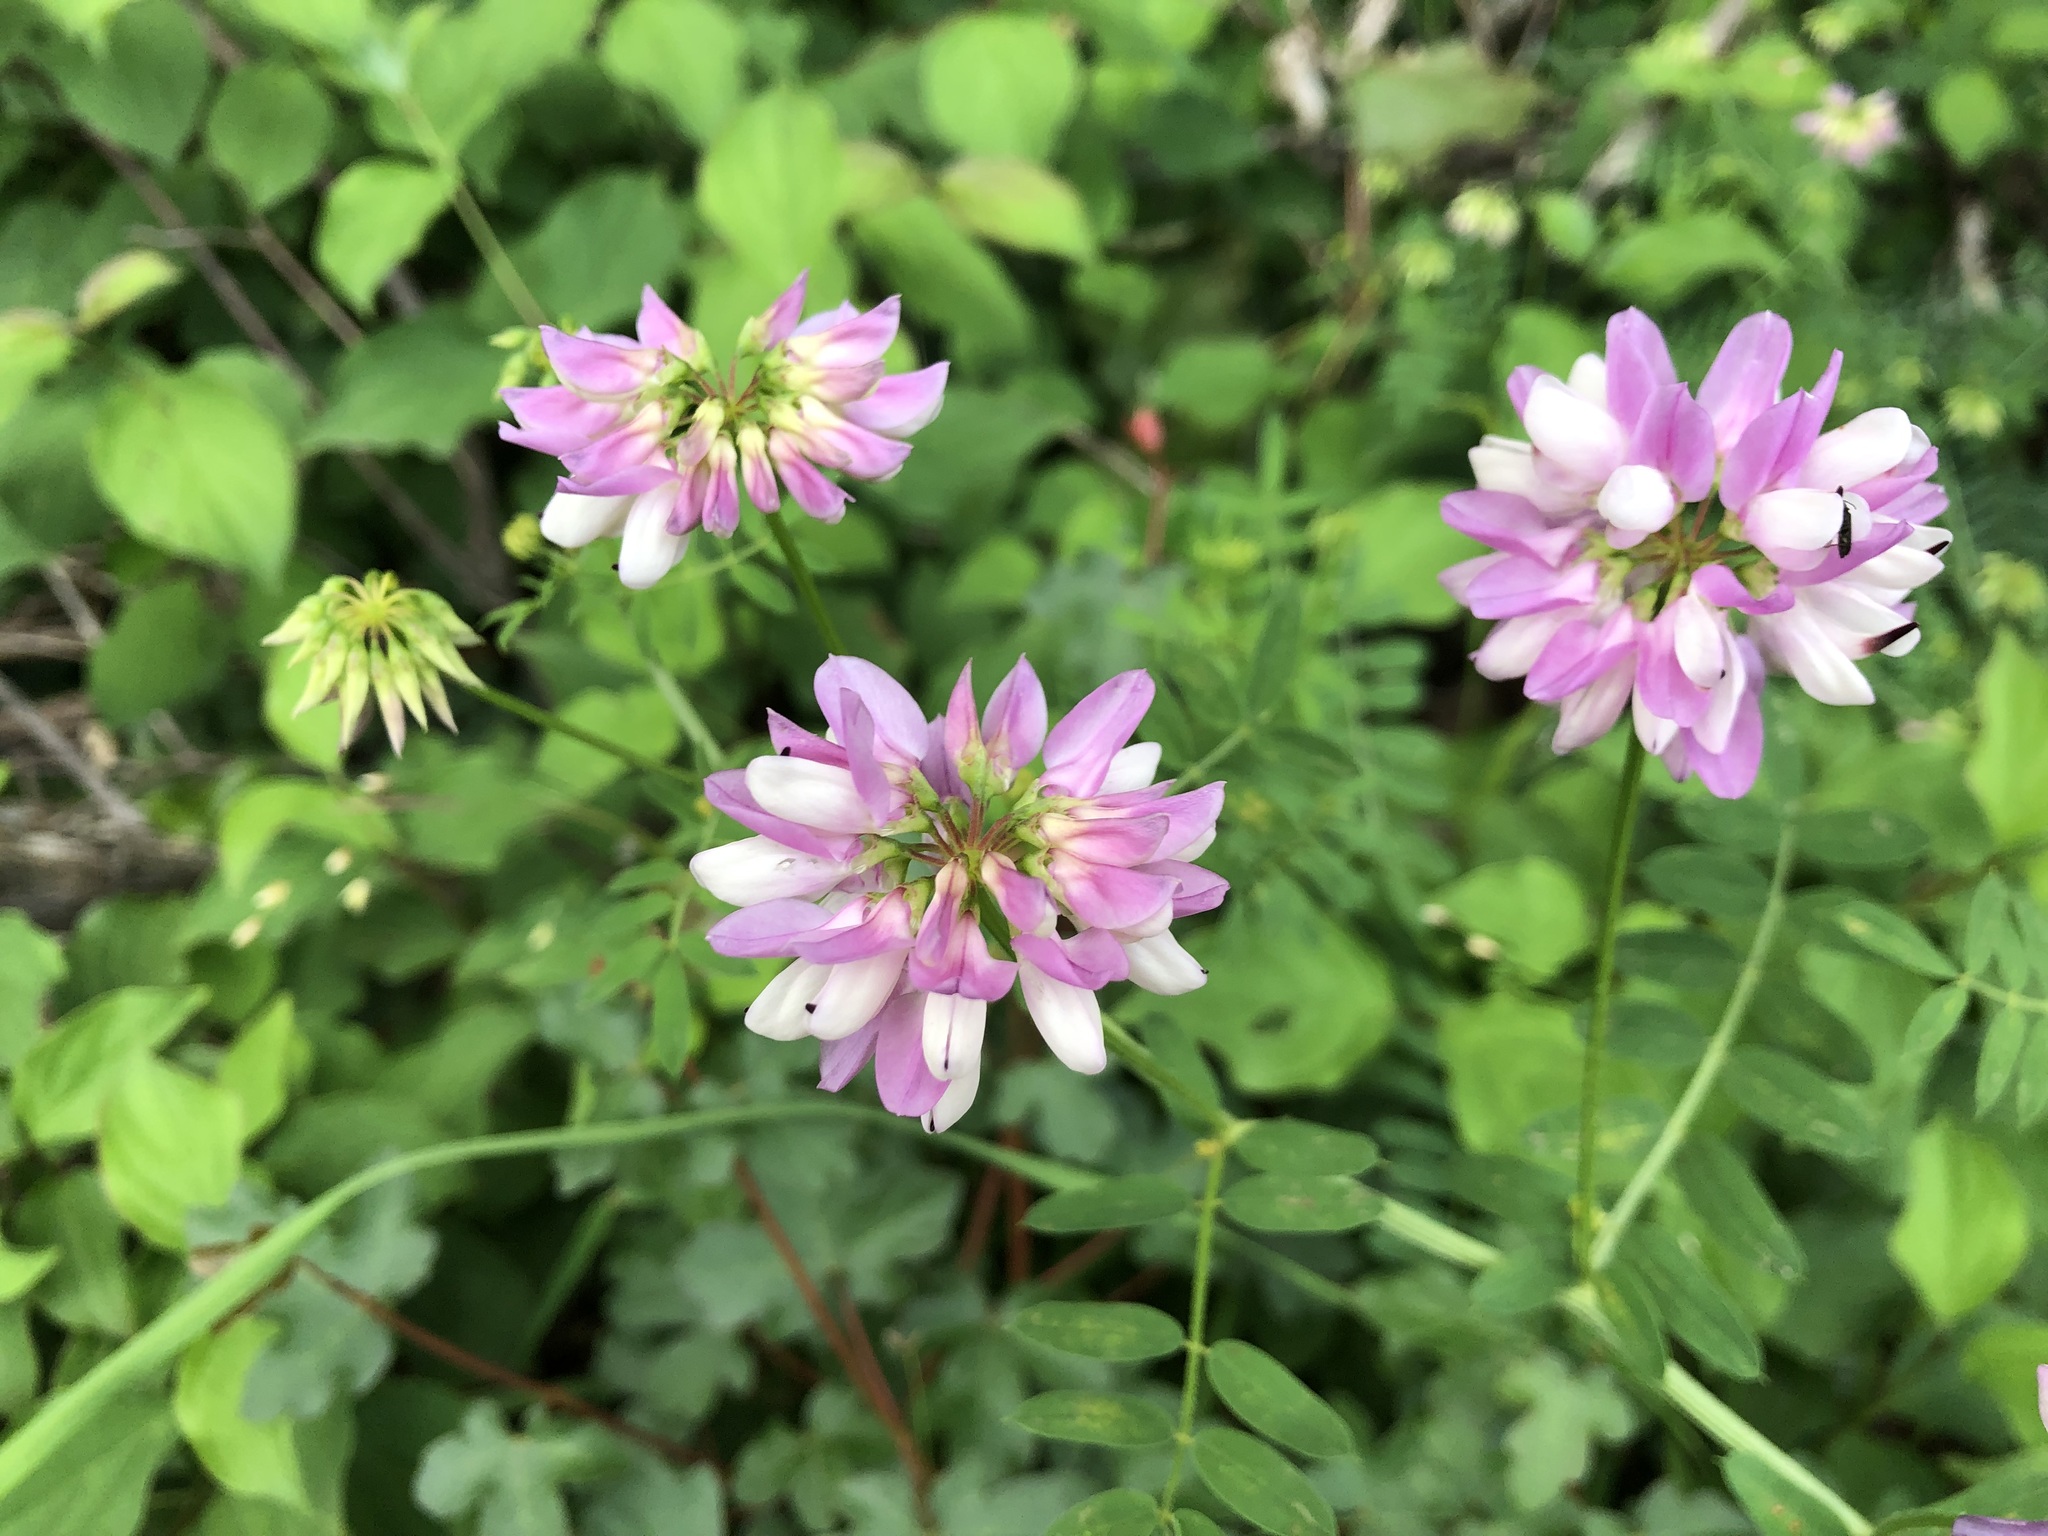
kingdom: Plantae
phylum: Tracheophyta
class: Magnoliopsida
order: Fabales
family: Fabaceae
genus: Coronilla
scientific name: Coronilla varia
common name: Crownvetch
